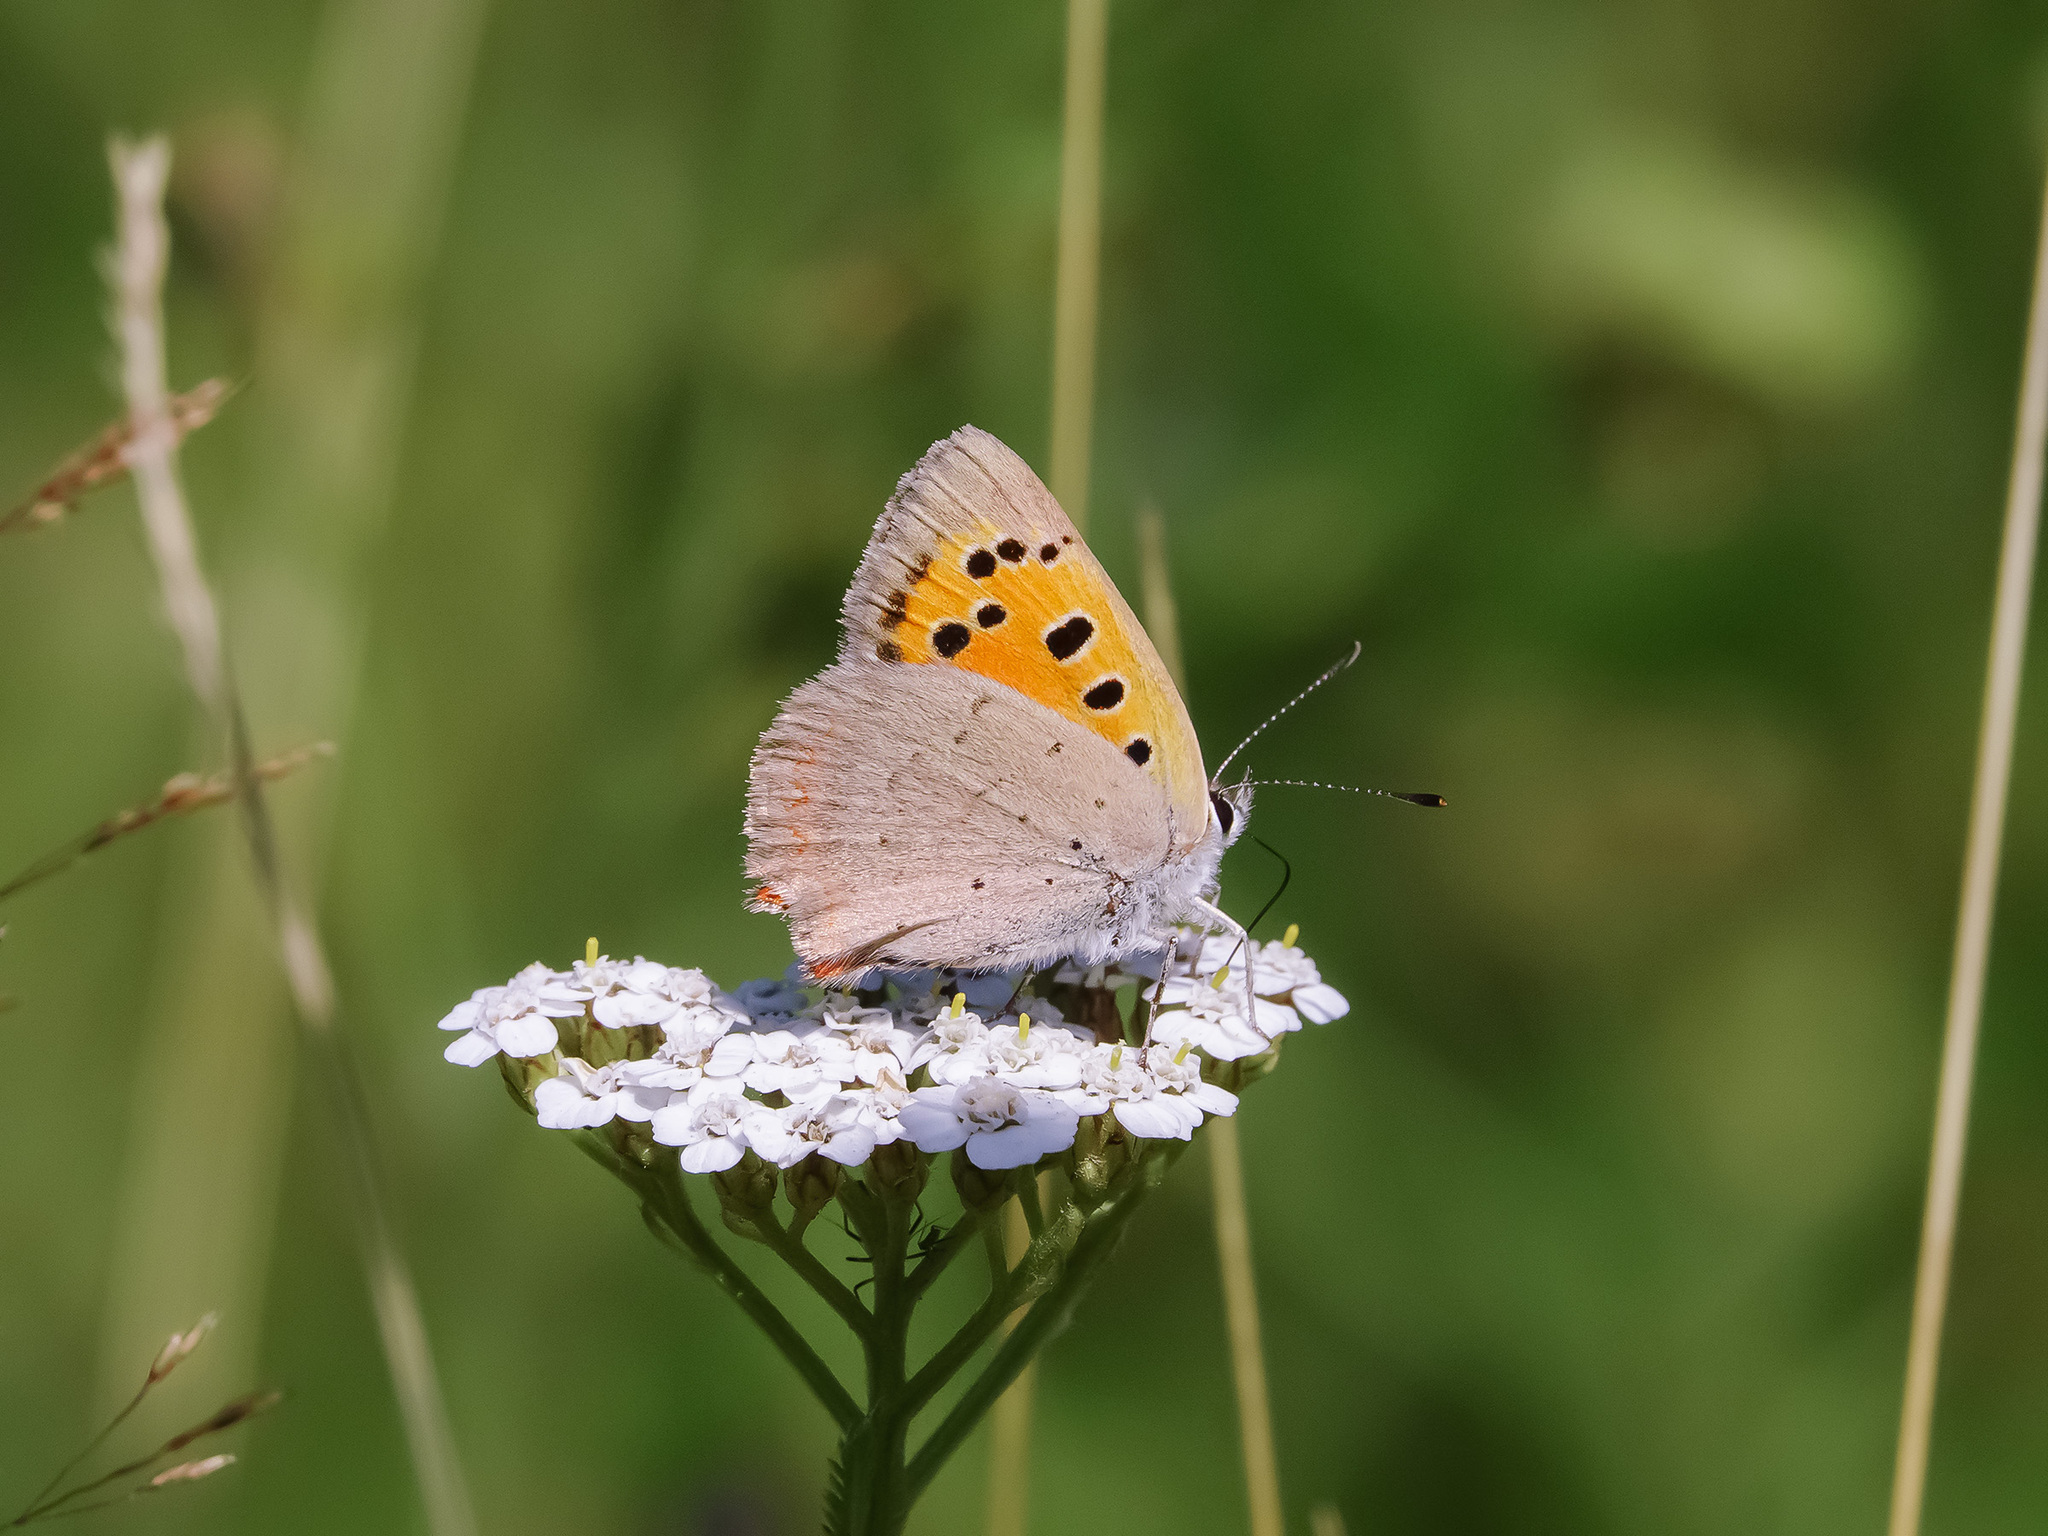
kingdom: Animalia
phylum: Arthropoda
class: Insecta
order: Lepidoptera
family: Lycaenidae
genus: Lycaena
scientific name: Lycaena phlaeas
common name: Small copper
